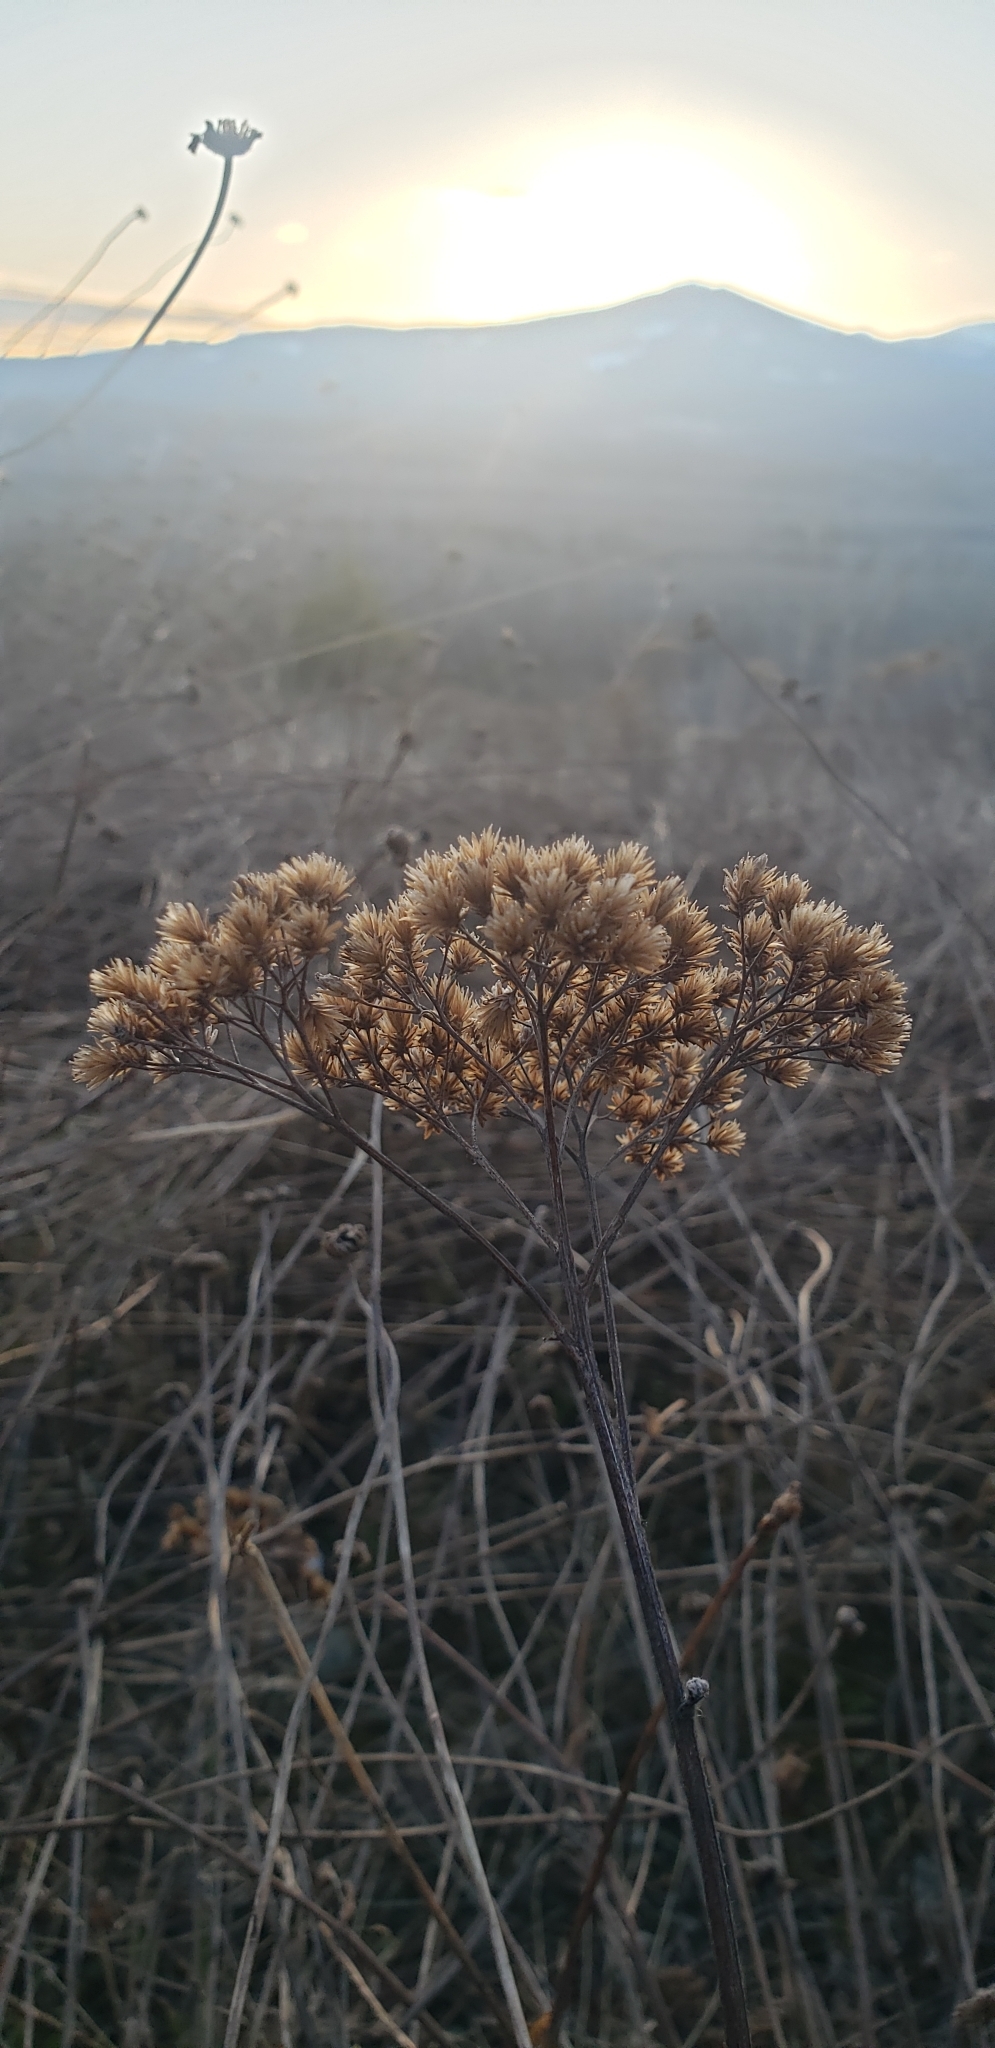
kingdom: Plantae
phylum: Tracheophyta
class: Magnoliopsida
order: Asterales
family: Asteraceae
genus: Achillea
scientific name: Achillea millefolium
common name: Yarrow
